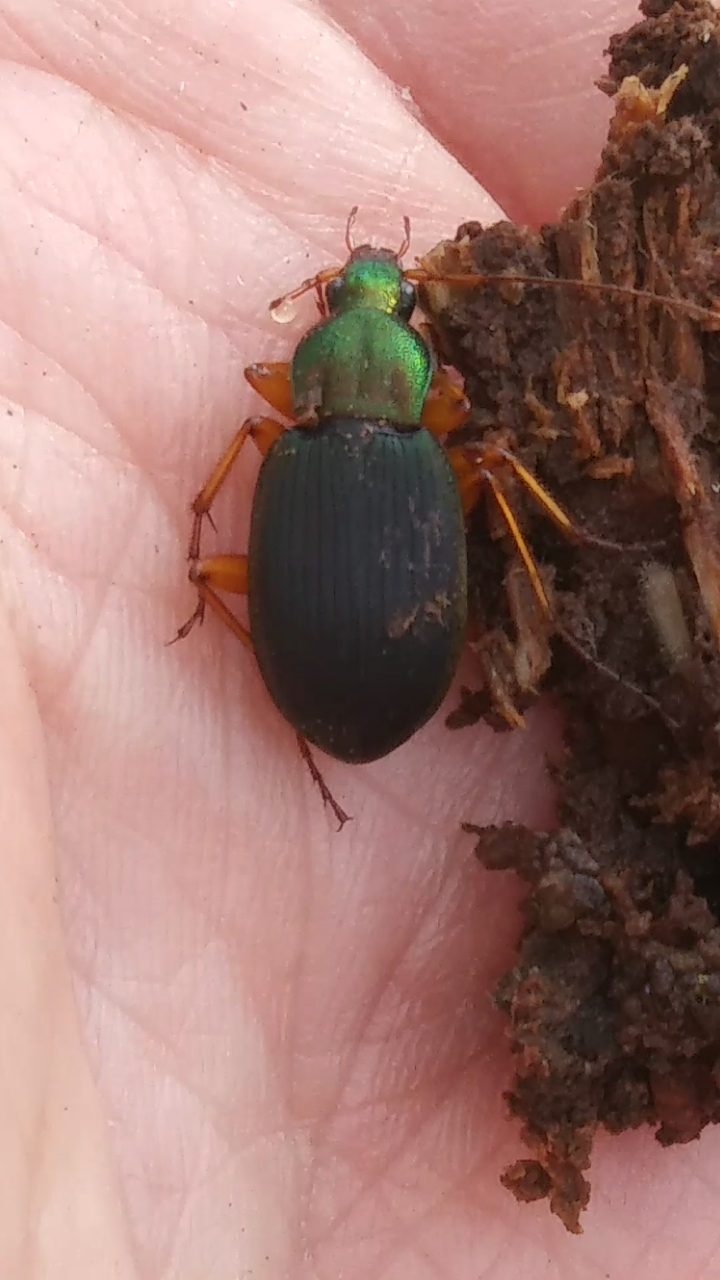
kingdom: Animalia
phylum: Arthropoda
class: Insecta
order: Coleoptera
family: Carabidae
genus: Chlaenius
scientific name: Chlaenius aestivus
